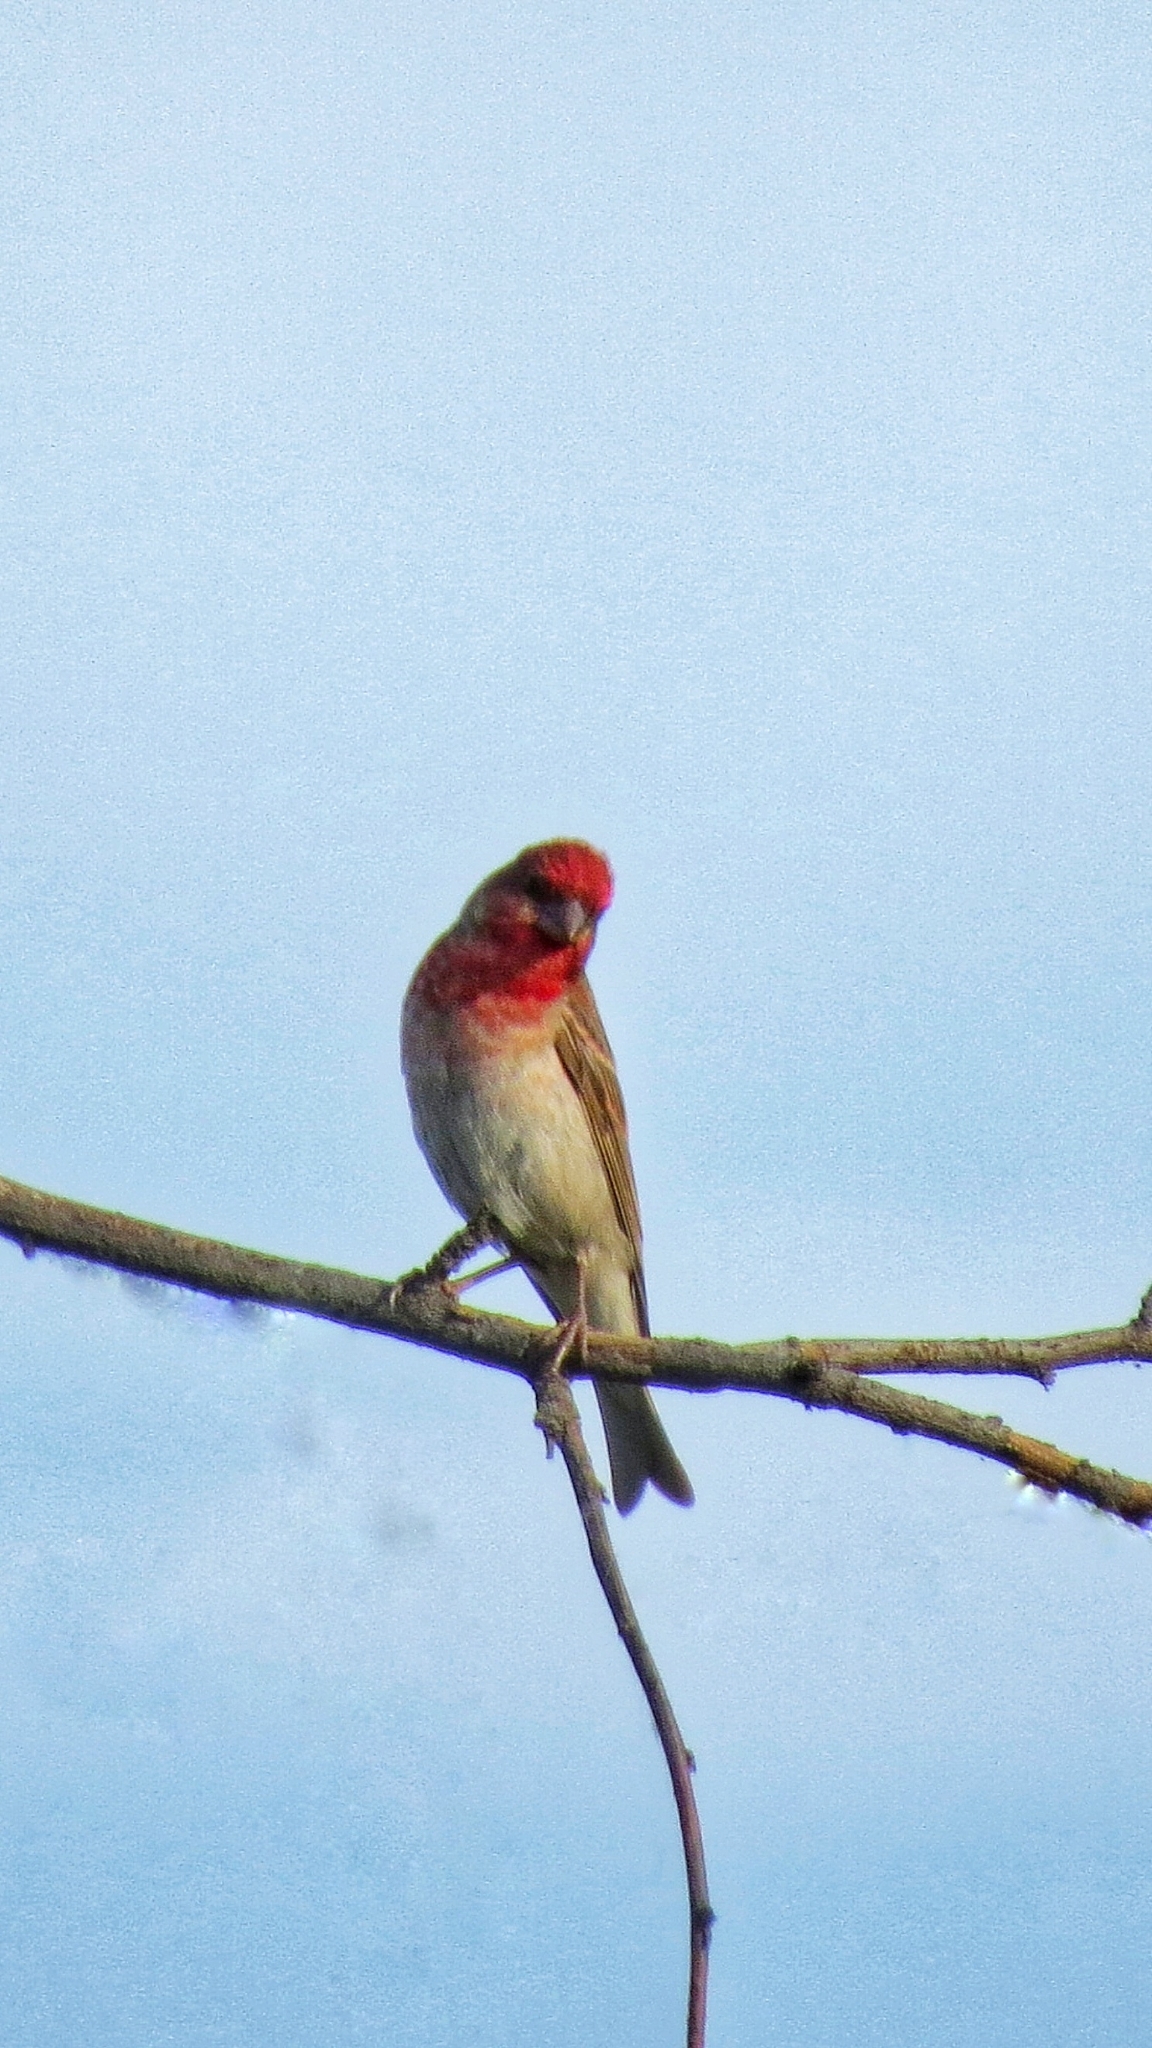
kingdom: Animalia
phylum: Chordata
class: Aves
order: Passeriformes
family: Fringillidae
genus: Carpodacus
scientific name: Carpodacus erythrinus
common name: Common rosefinch
